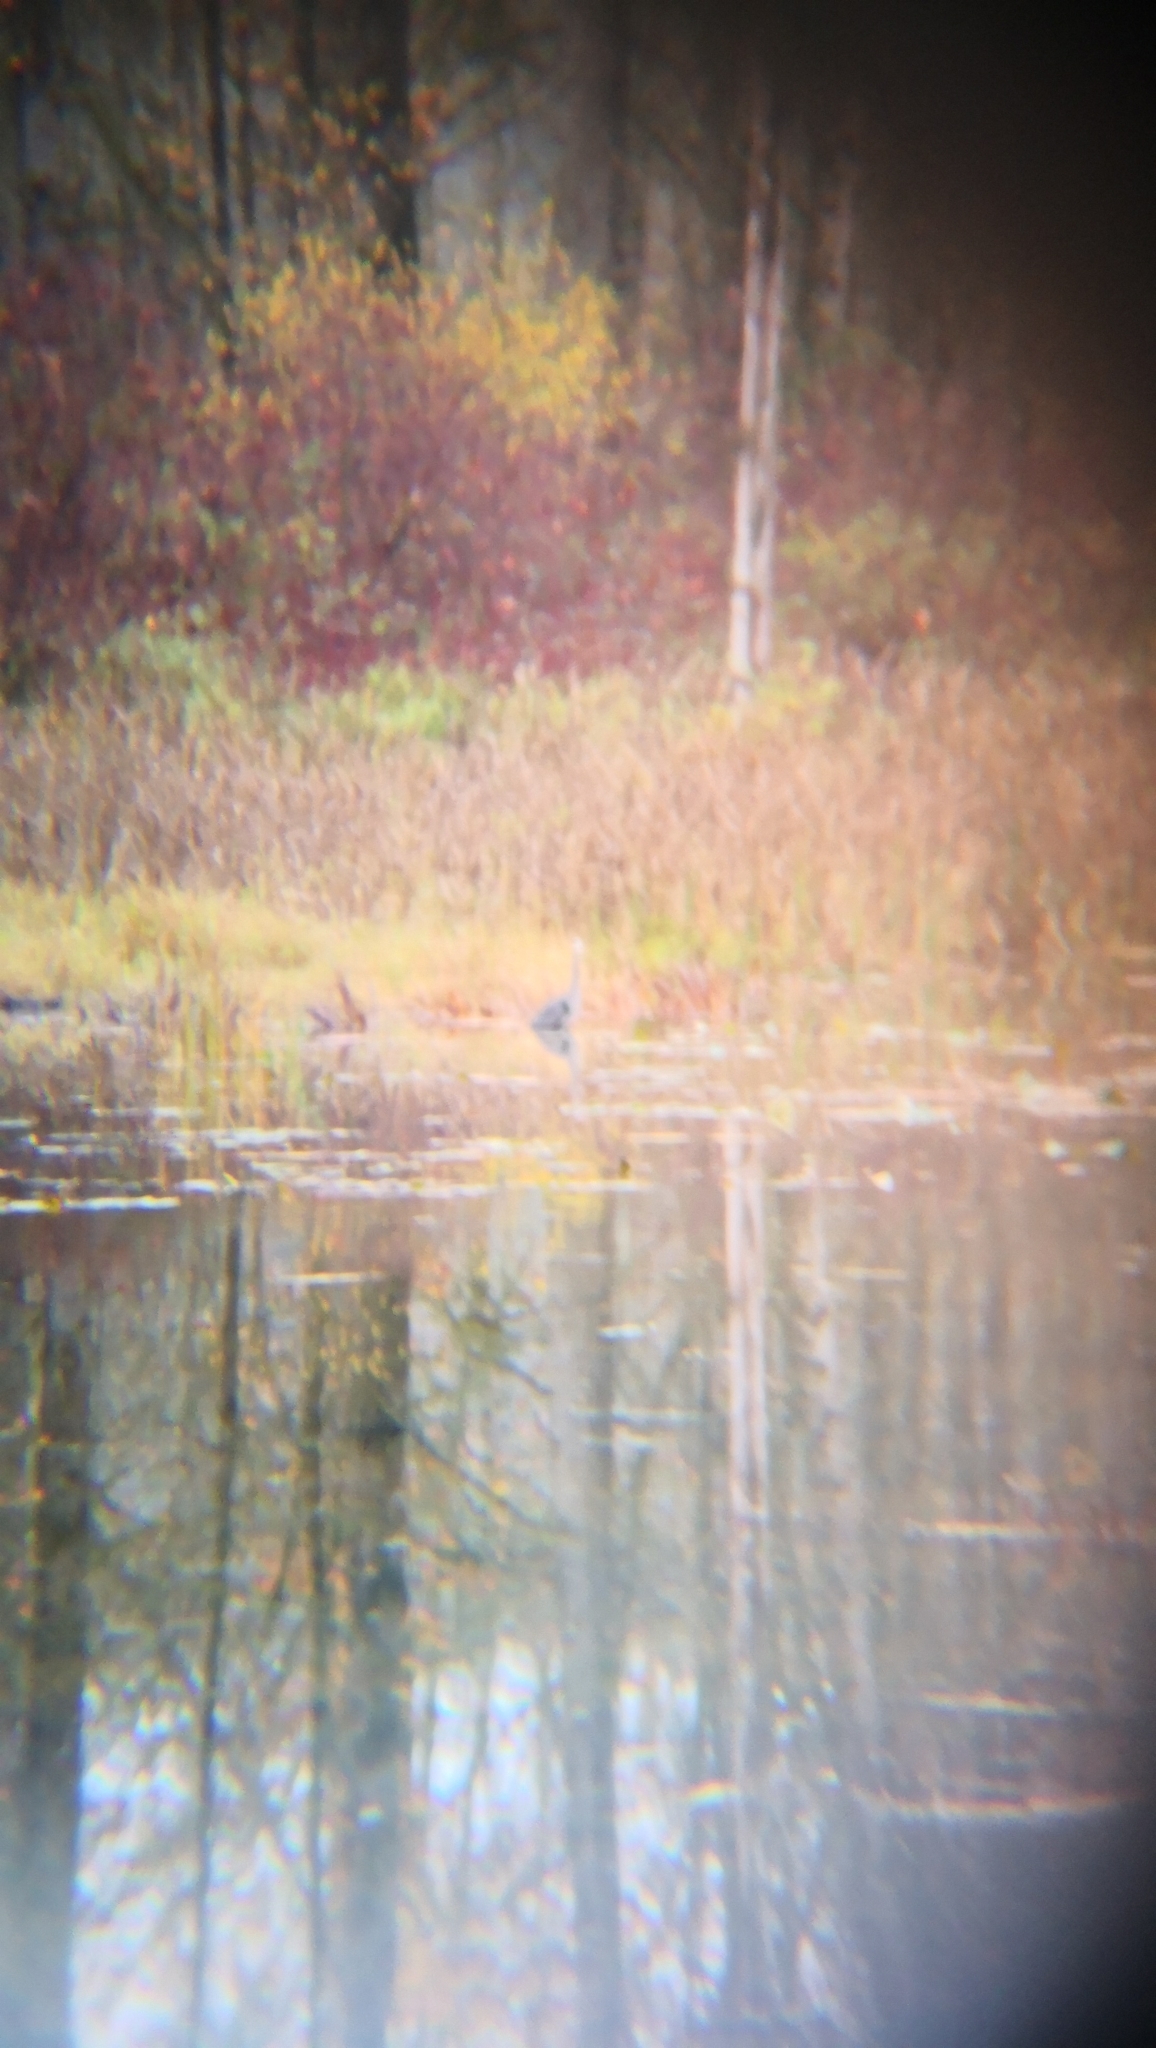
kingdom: Animalia
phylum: Chordata
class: Aves
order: Pelecaniformes
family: Ardeidae
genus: Ardea
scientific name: Ardea herodias
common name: Great blue heron
